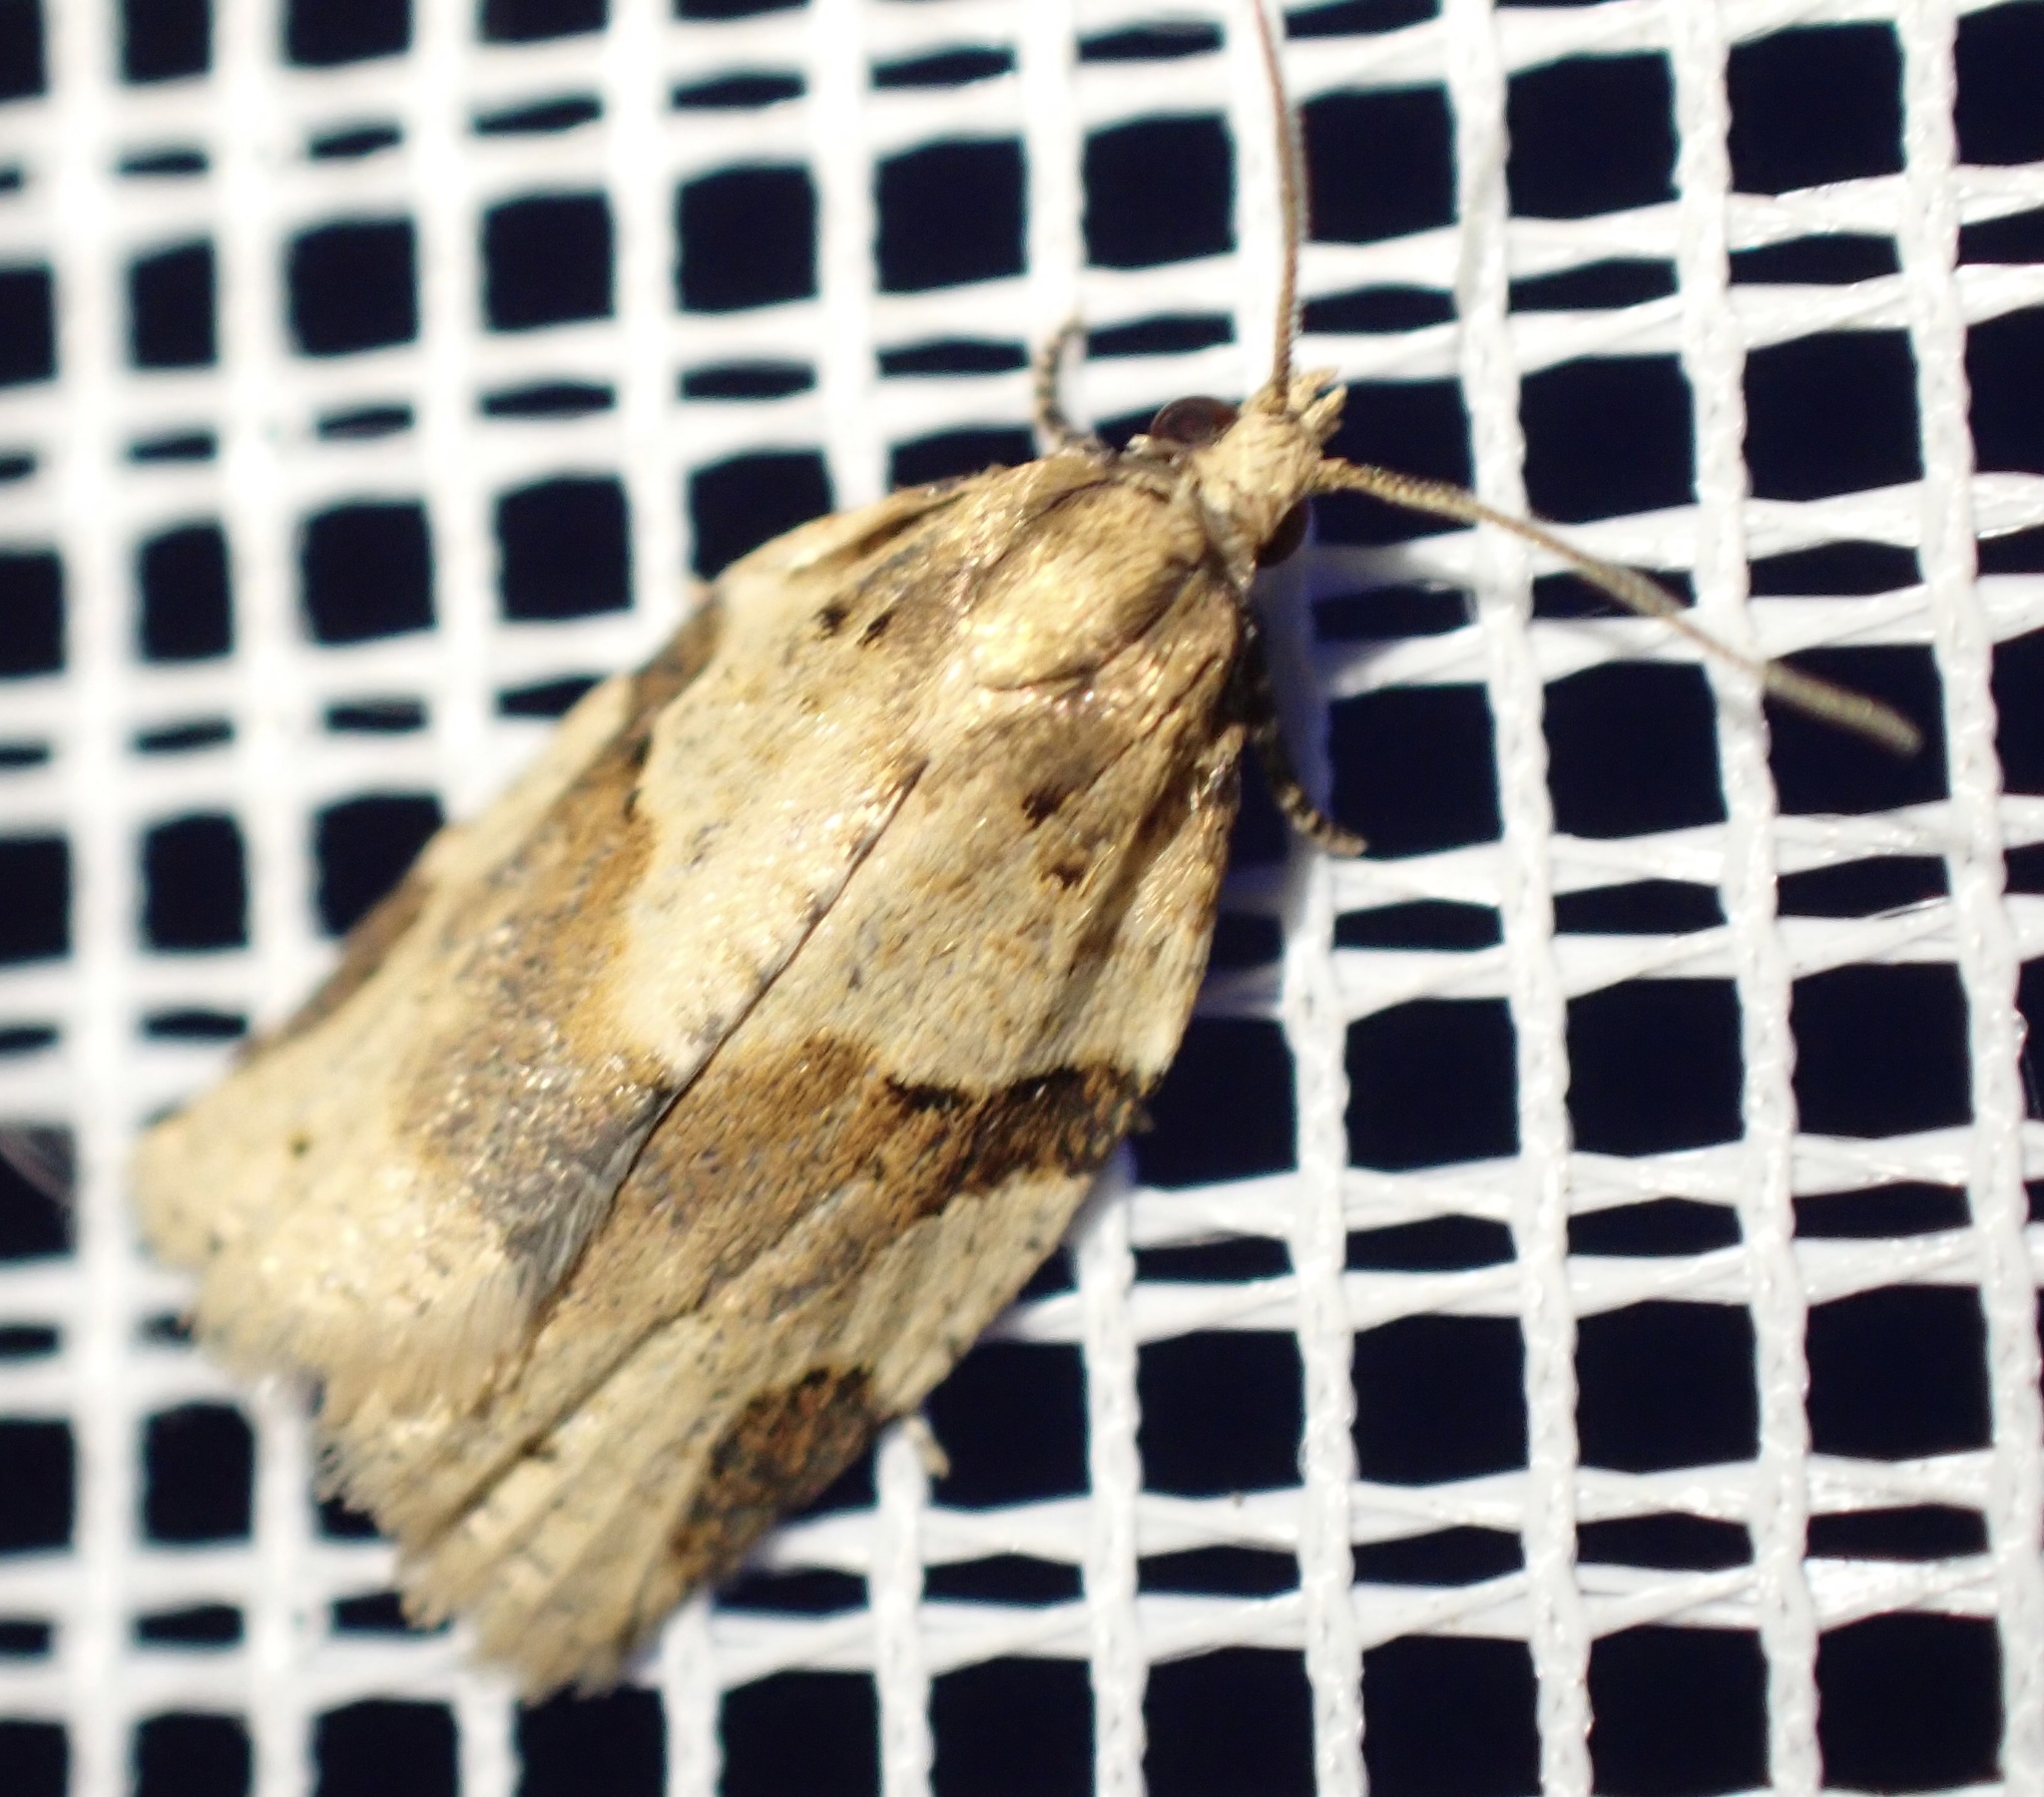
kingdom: Animalia
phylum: Arthropoda
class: Insecta
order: Lepidoptera
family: Tortricidae
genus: Clepsis
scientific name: Clepsis spectrana
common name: Cyclamen tortrix
